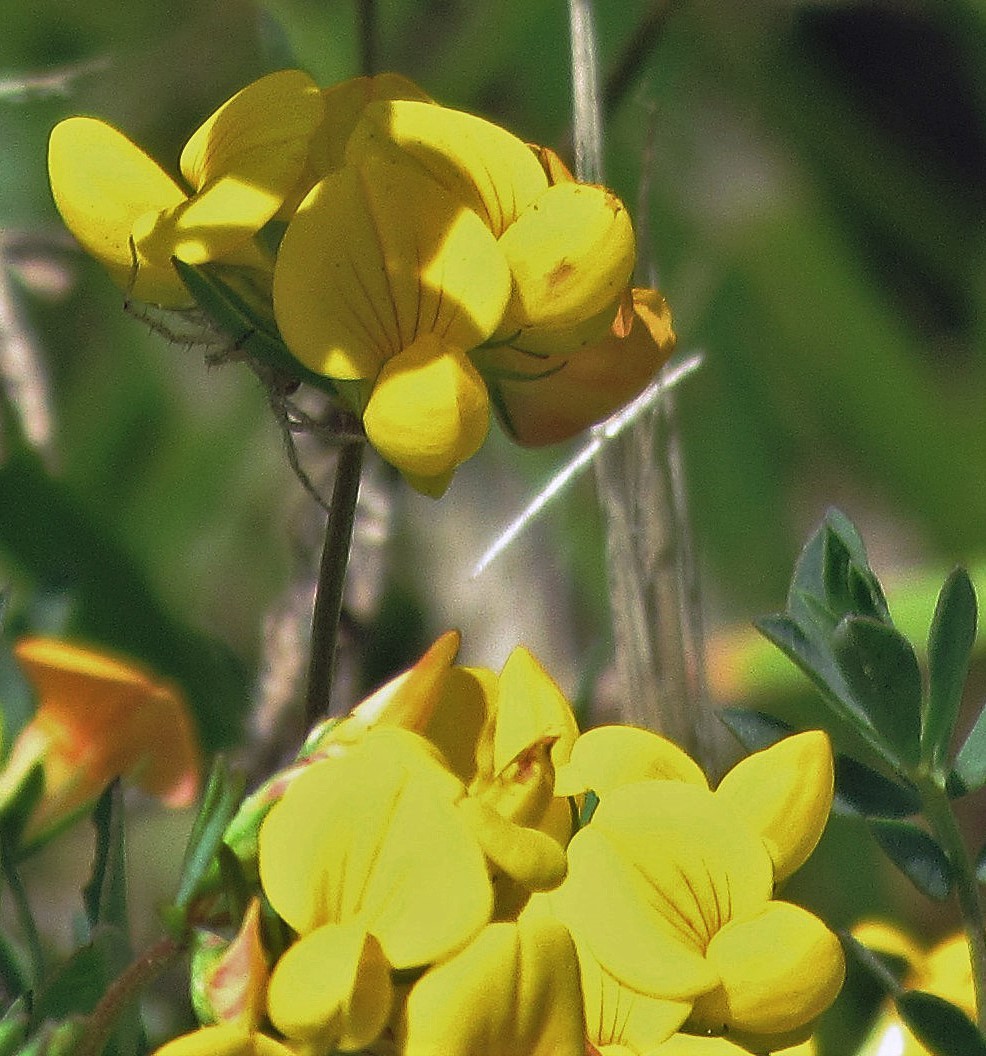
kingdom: Plantae
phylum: Tracheophyta
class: Magnoliopsida
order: Fabales
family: Fabaceae
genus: Lotus
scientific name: Lotus tenuis
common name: Narrow-leaved bird's-foot-trefoil
